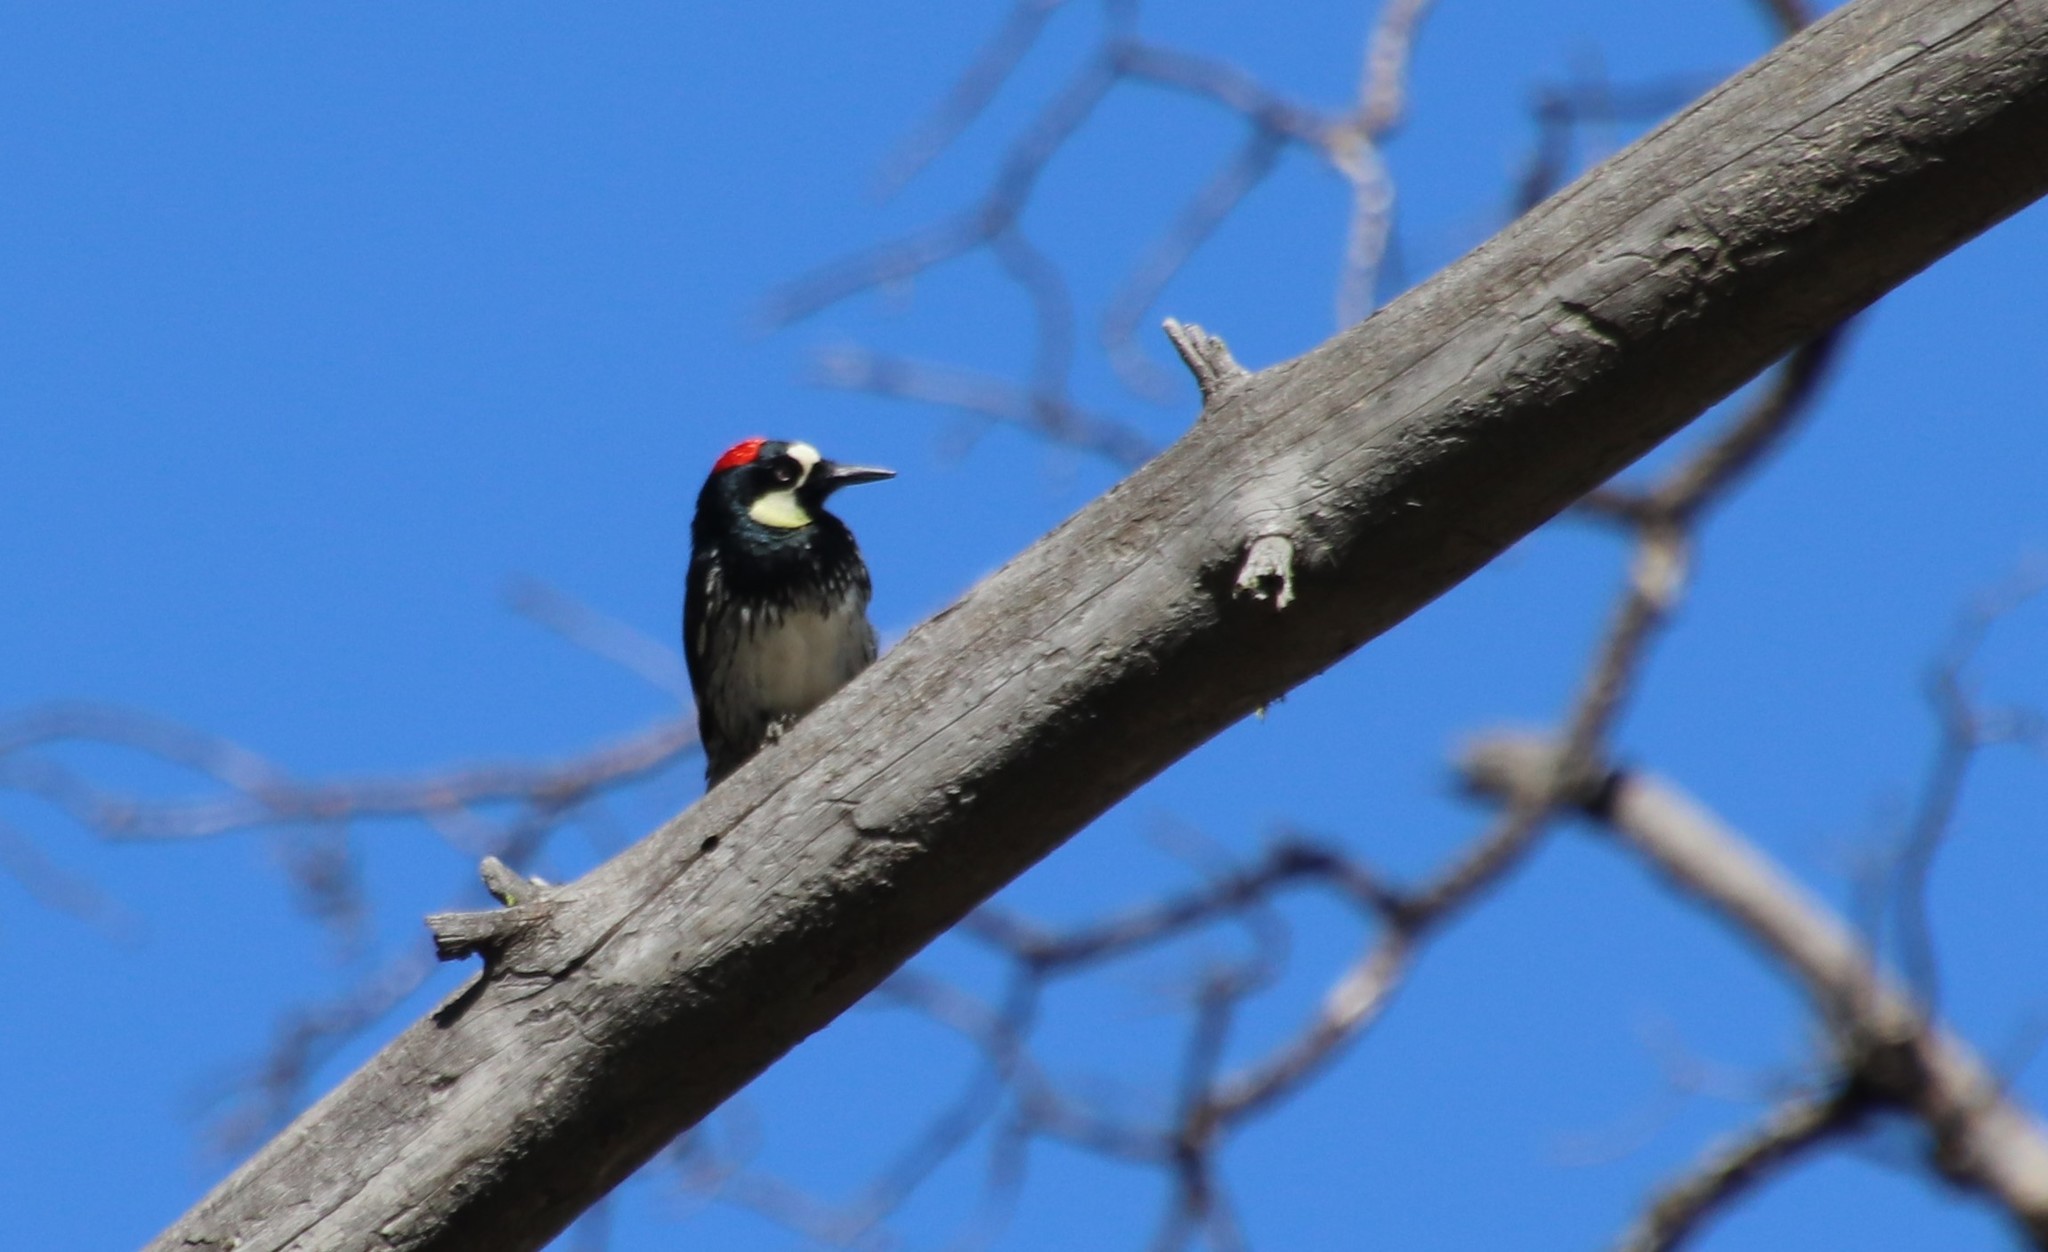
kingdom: Animalia
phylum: Chordata
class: Aves
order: Piciformes
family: Picidae
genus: Melanerpes
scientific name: Melanerpes formicivorus
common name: Acorn woodpecker
